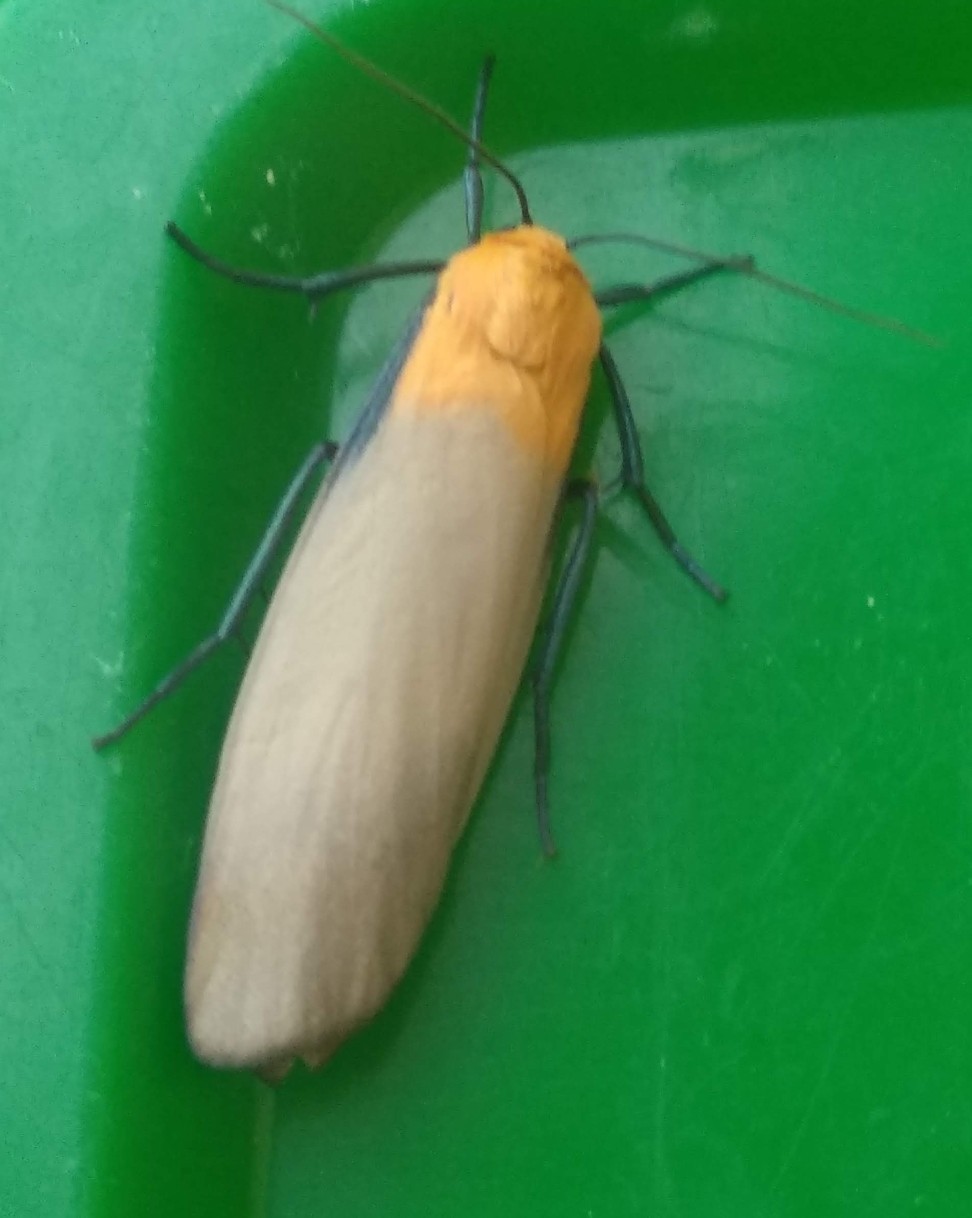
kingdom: Animalia
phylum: Arthropoda
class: Insecta
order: Lepidoptera
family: Erebidae
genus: Lithosia
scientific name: Lithosia quadra
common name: Four-spotted footman
